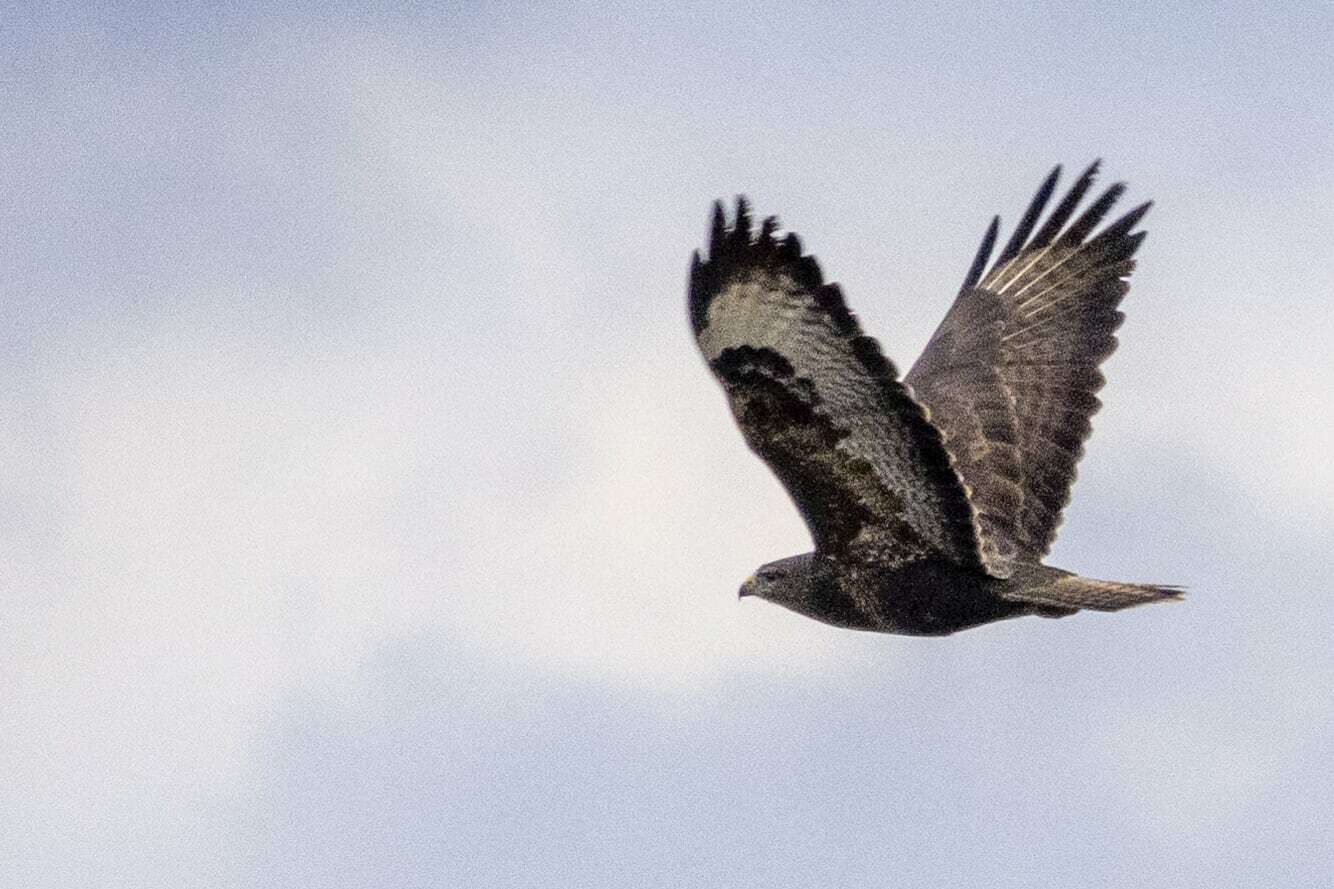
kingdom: Animalia
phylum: Chordata
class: Aves
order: Accipitriformes
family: Accipitridae
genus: Buteo
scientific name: Buteo buteo
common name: Common buzzard
